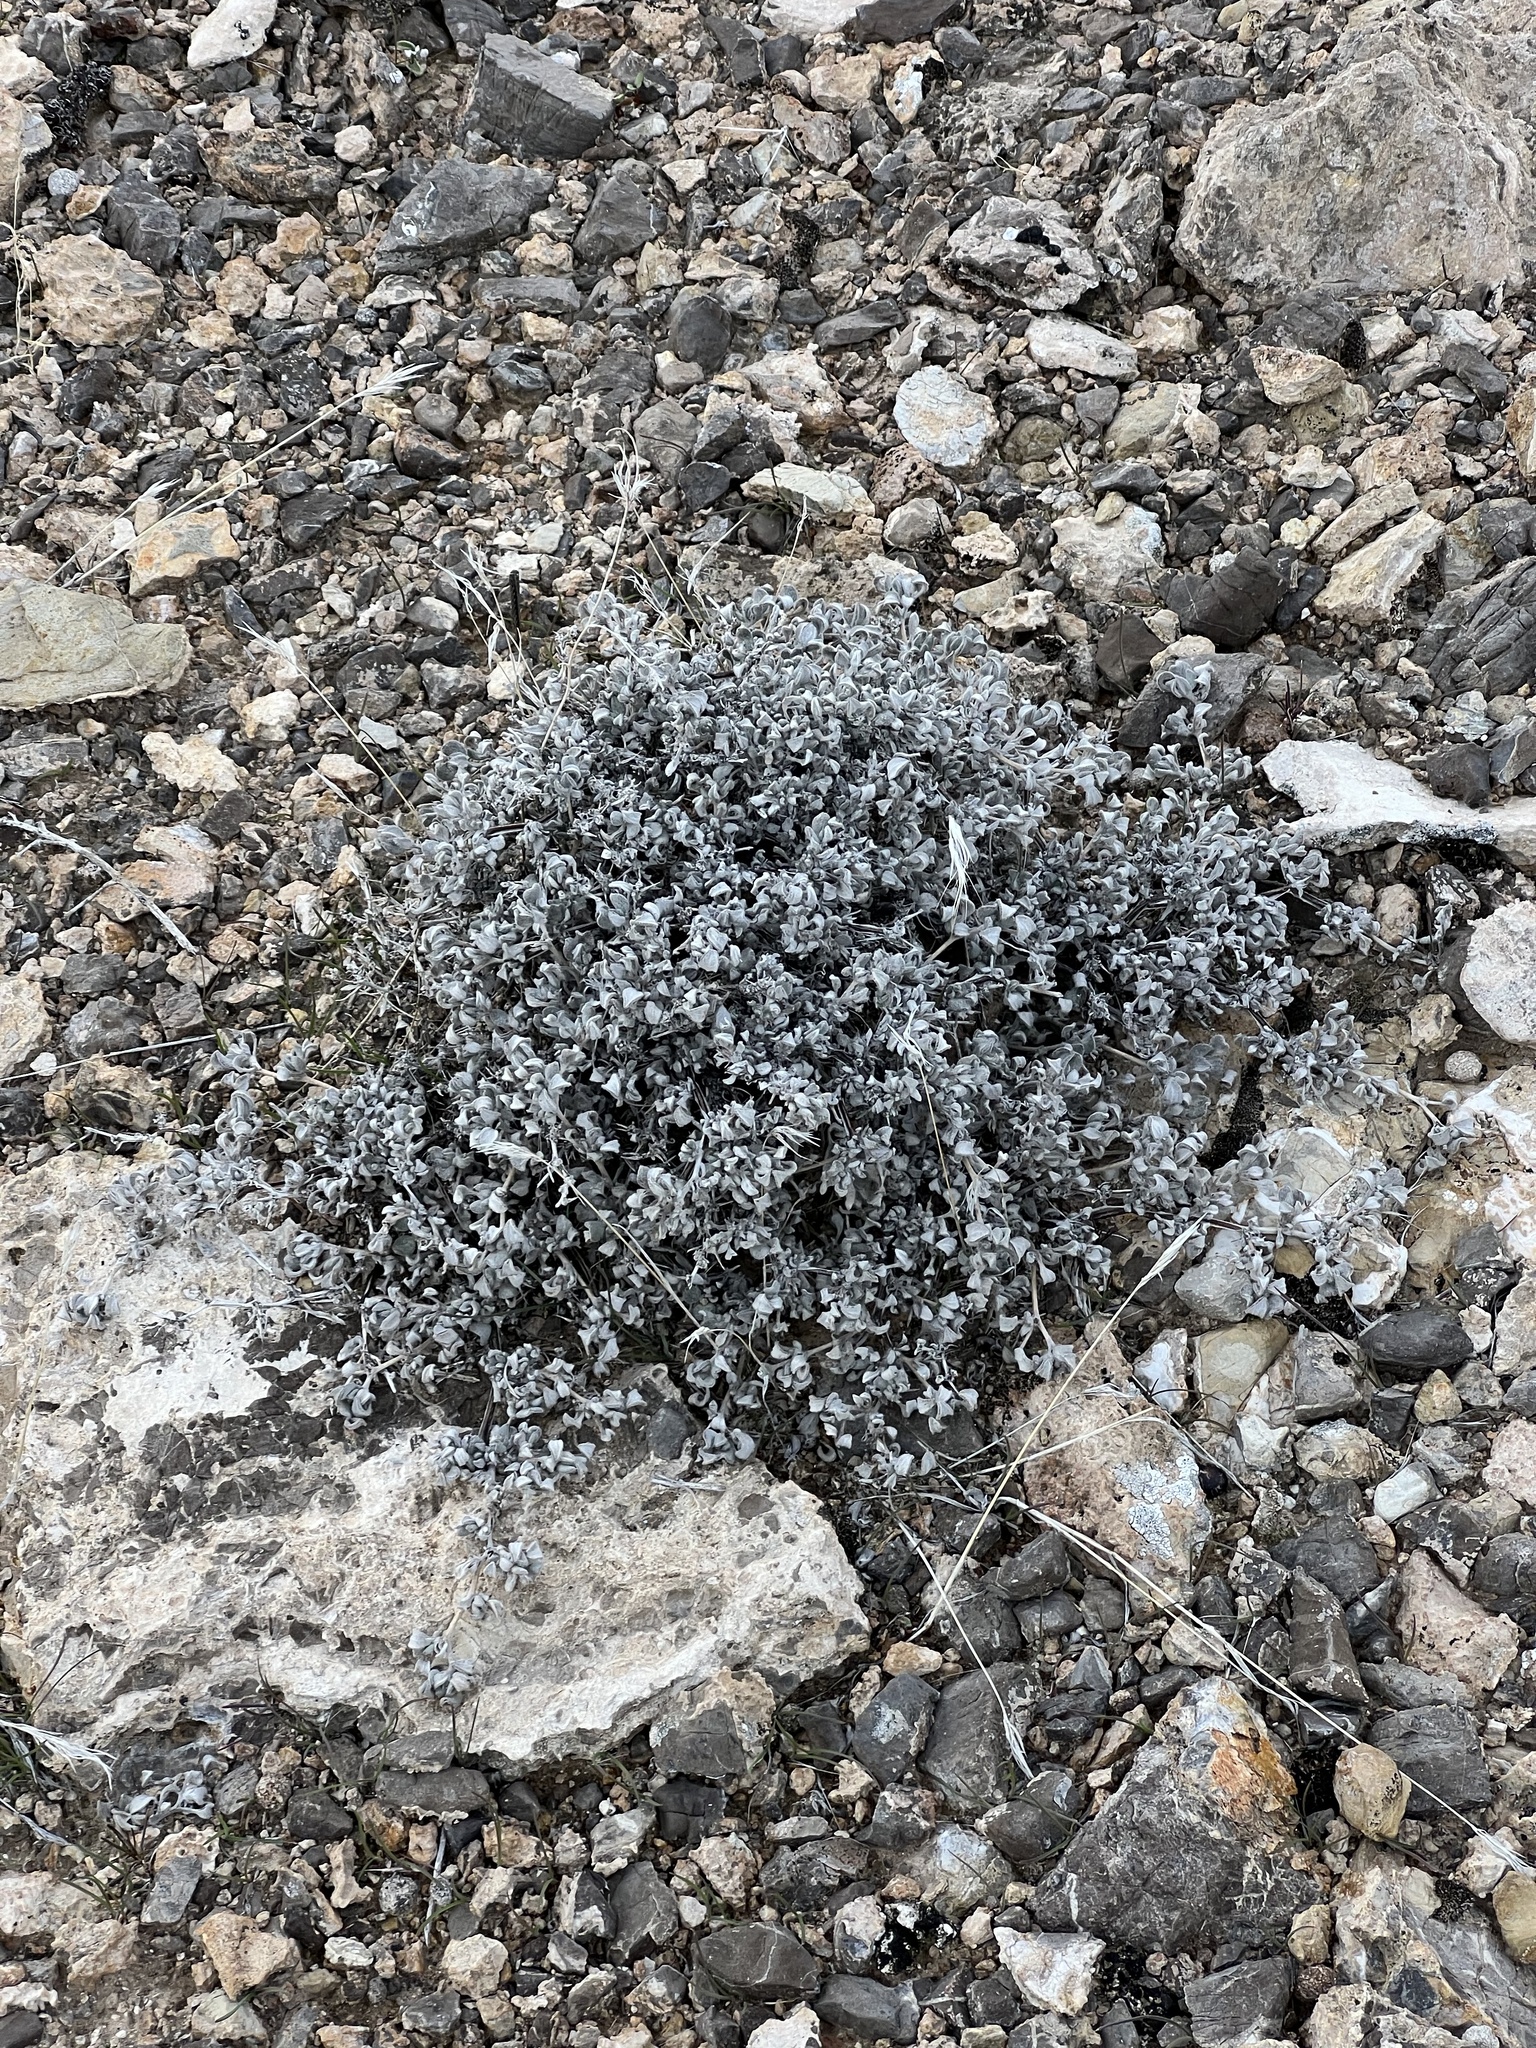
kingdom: Plantae
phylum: Tracheophyta
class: Magnoliopsida
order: Boraginales
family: Ehretiaceae
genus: Tiquilia
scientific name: Tiquilia canescens
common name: Hairy tiquilia
